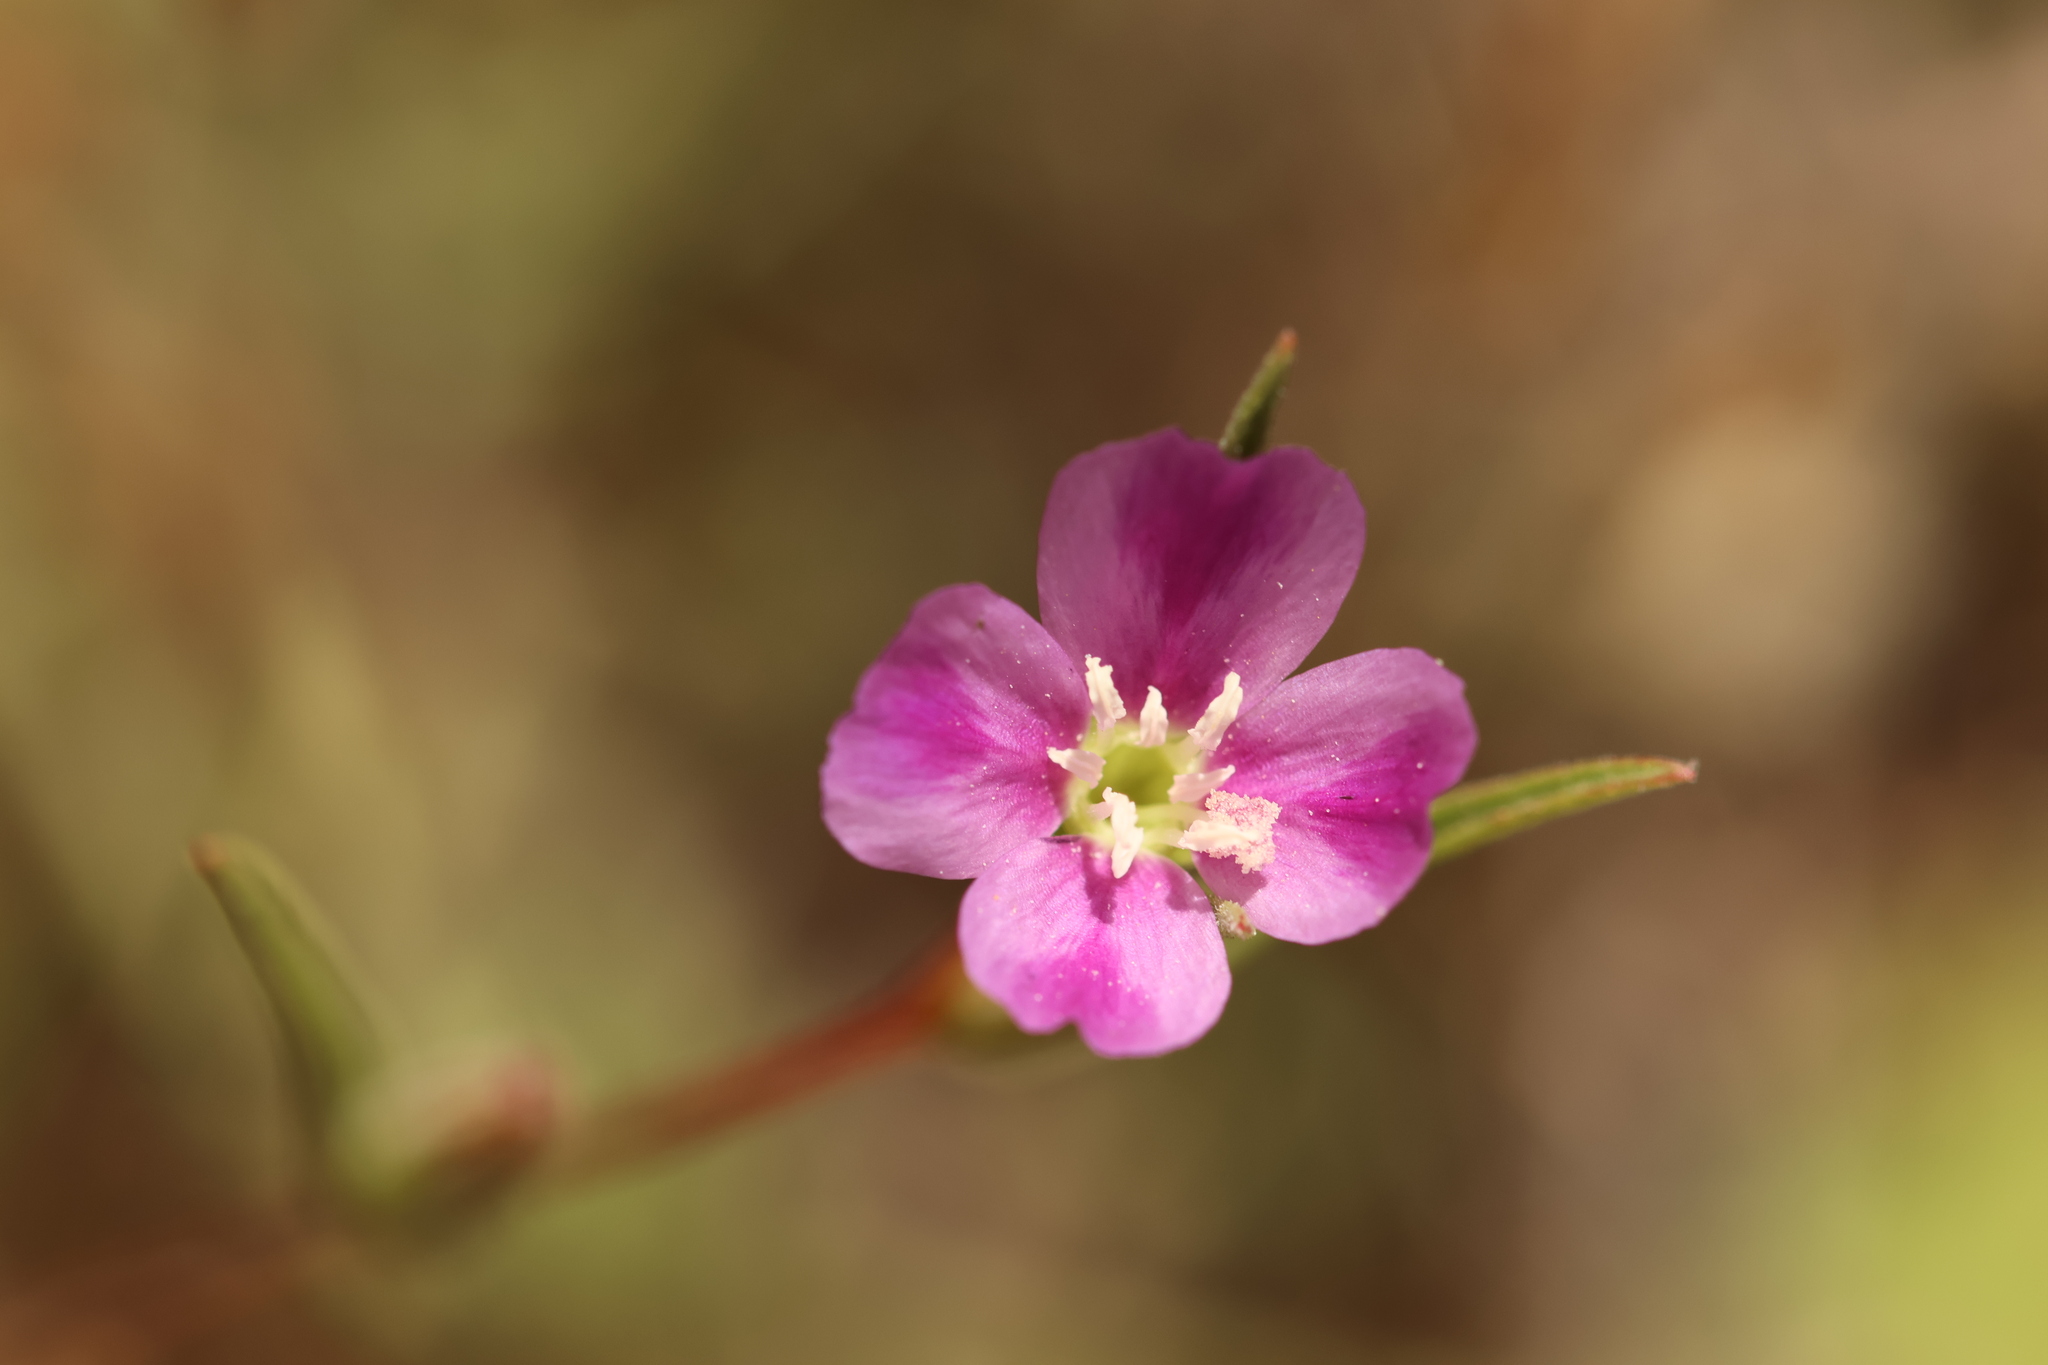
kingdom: Plantae
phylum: Tracheophyta
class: Magnoliopsida
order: Myrtales
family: Onagraceae
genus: Clarkia
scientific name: Clarkia purpurea
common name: Purple clarkia
